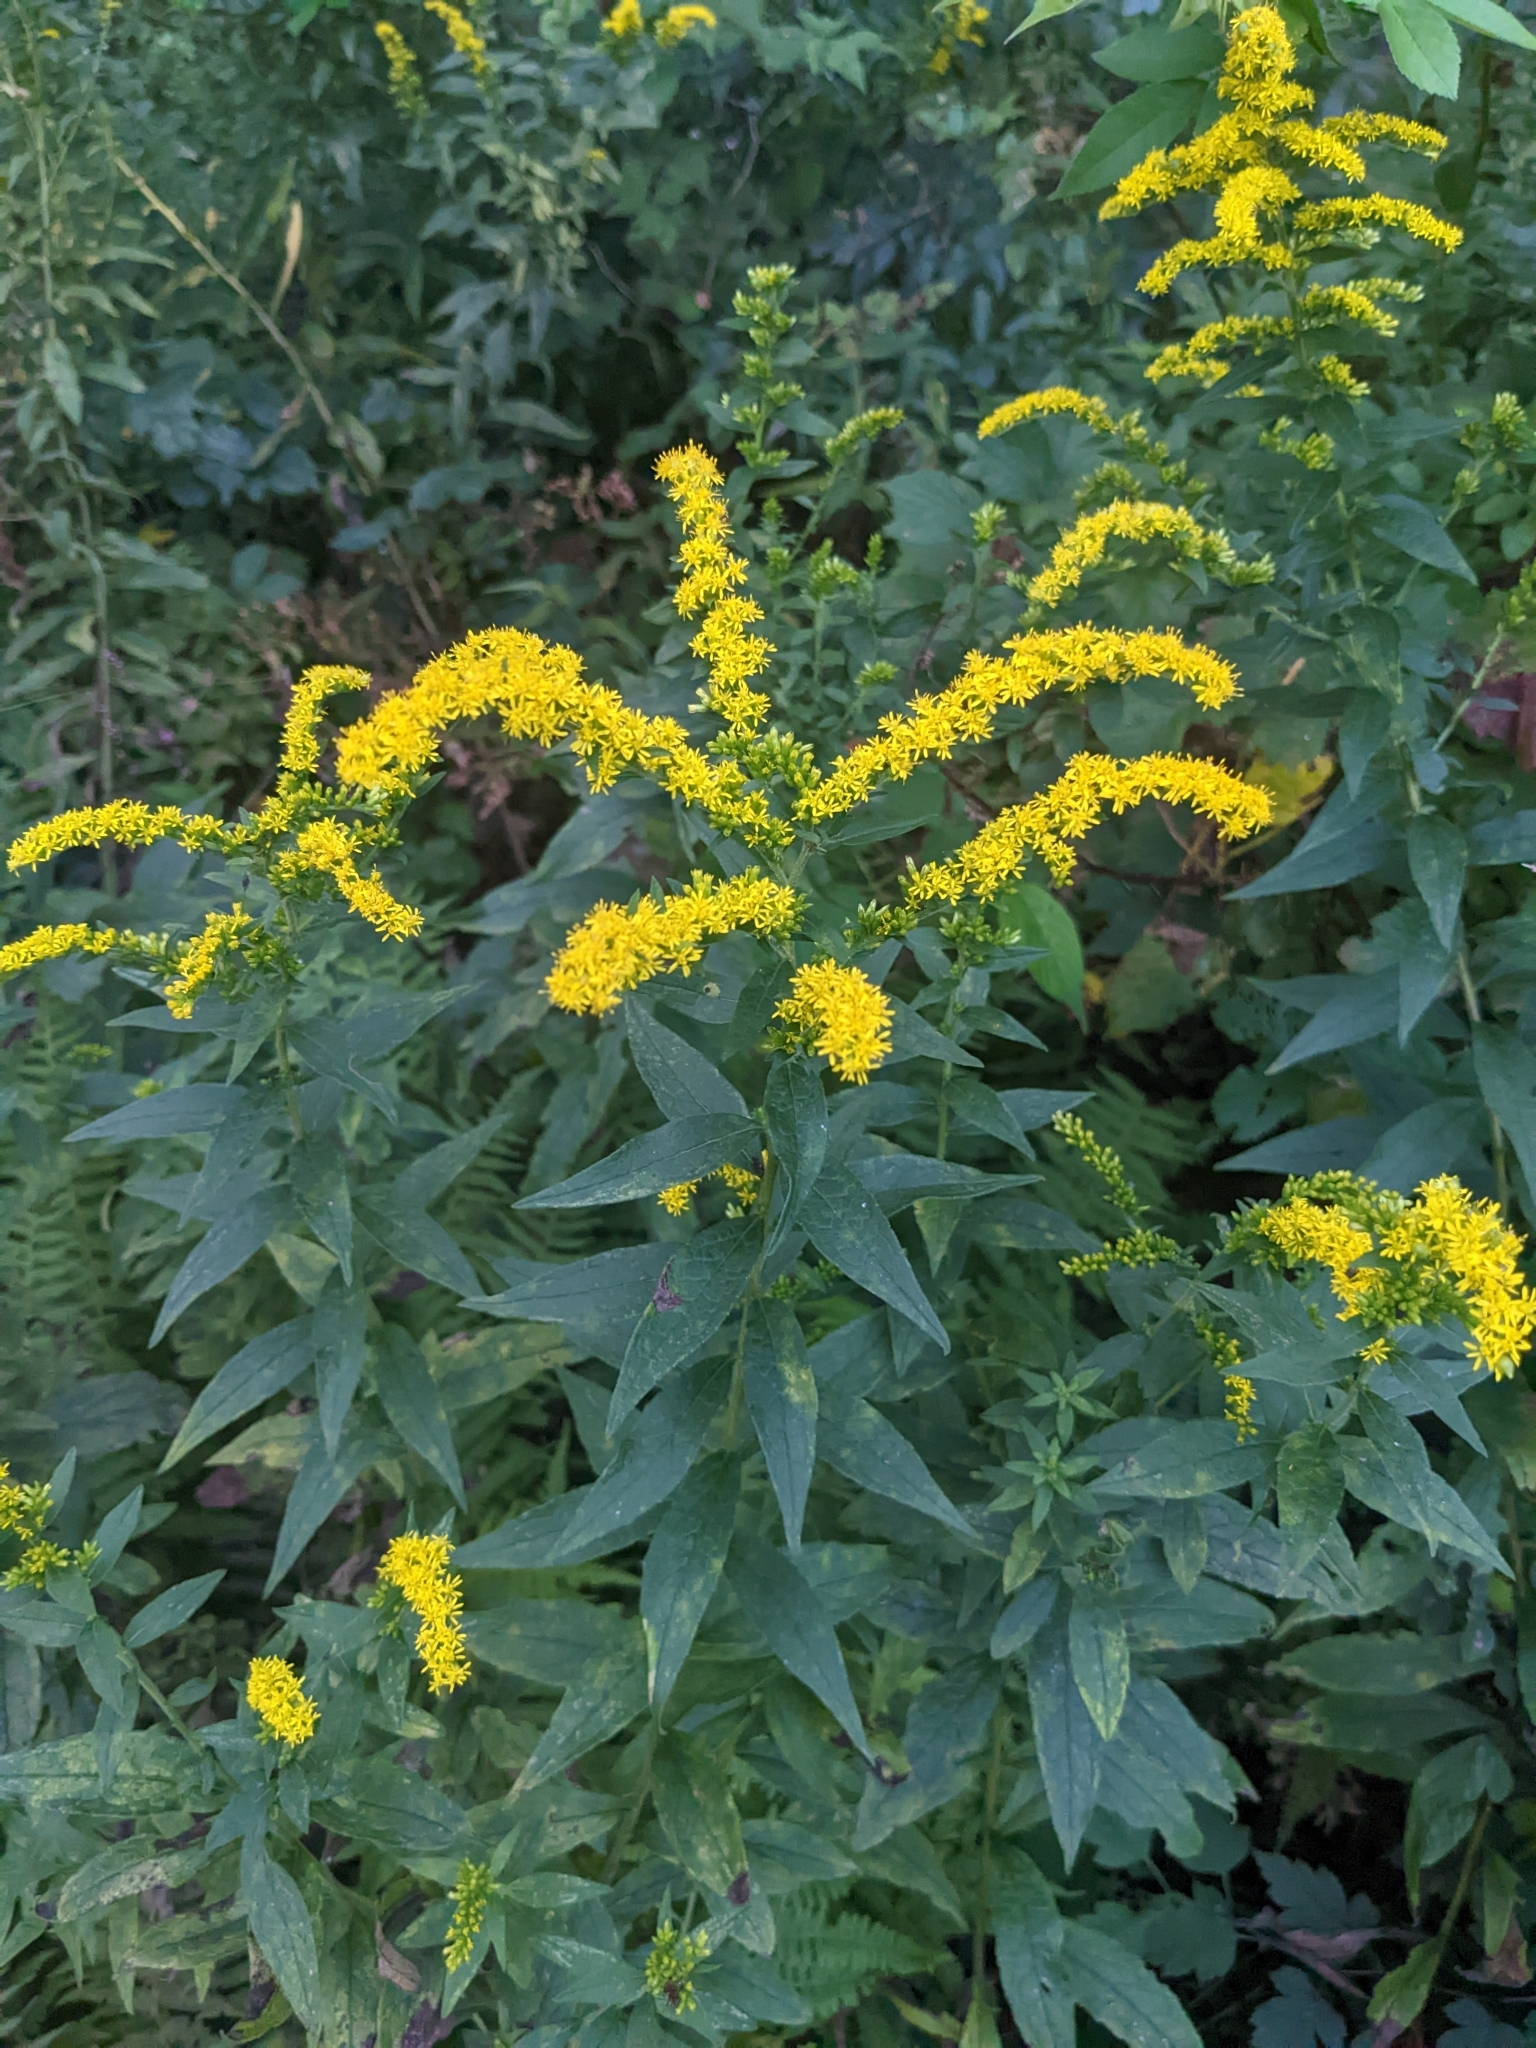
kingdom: Plantae
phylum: Tracheophyta
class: Magnoliopsida
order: Asterales
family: Asteraceae
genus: Solidago
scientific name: Solidago rugosa
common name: Rough-stemmed goldenrod
